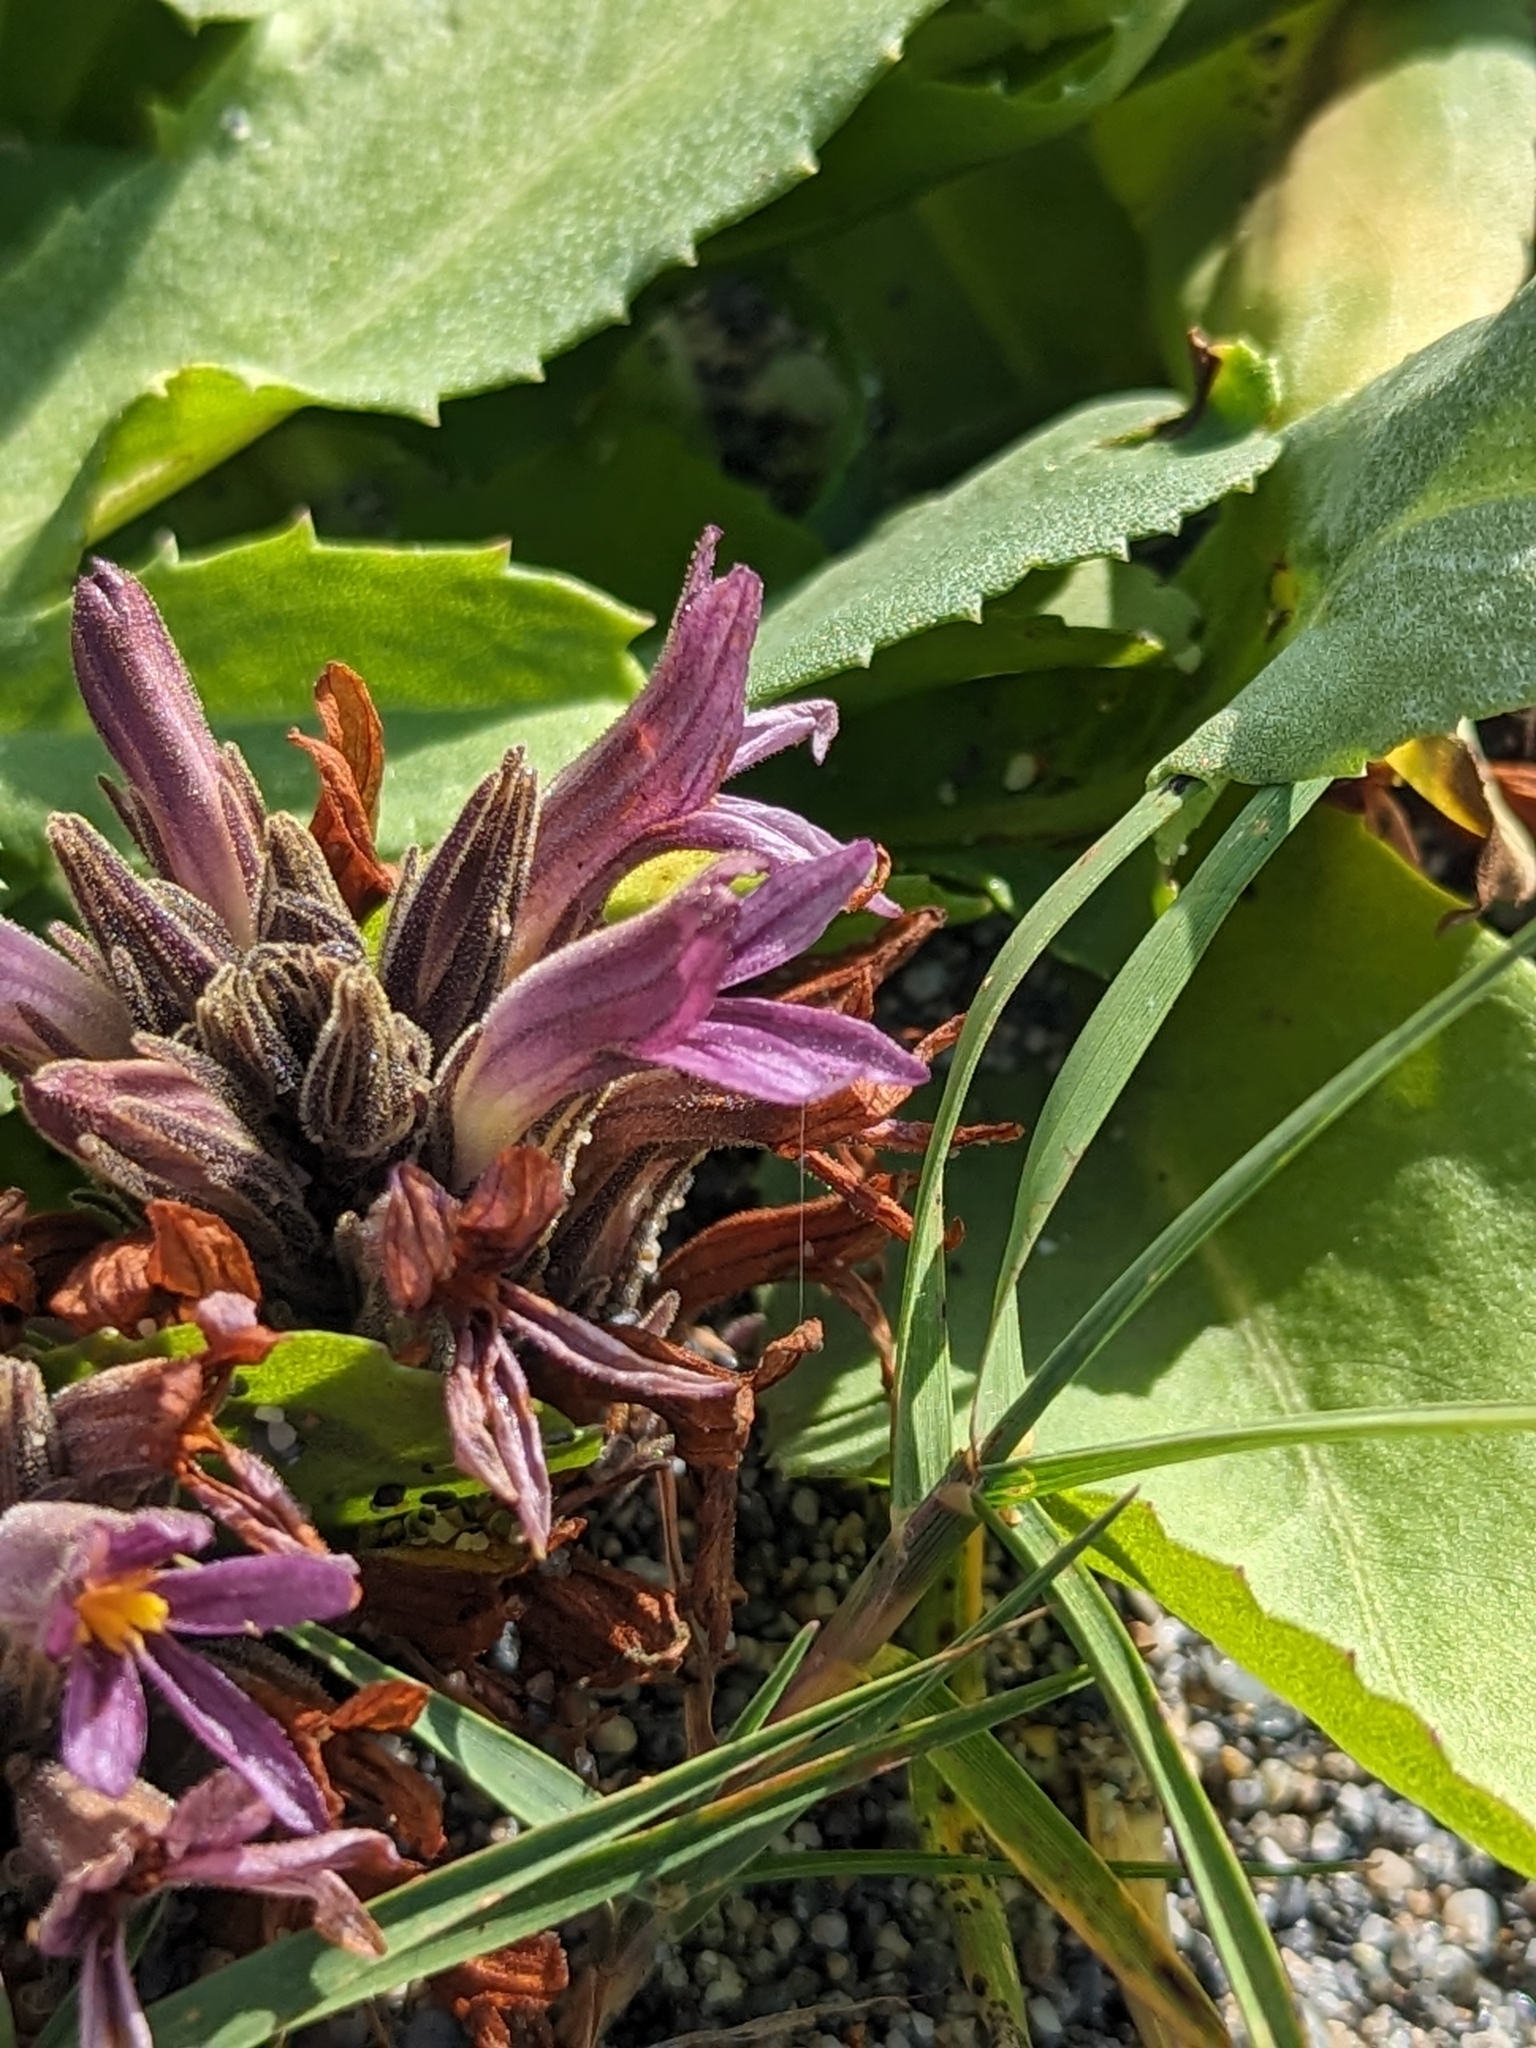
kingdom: Plantae
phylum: Tracheophyta
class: Magnoliopsida
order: Lamiales
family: Orobanchaceae
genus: Aphyllon
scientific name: Aphyllon californicum
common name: California broomrape
